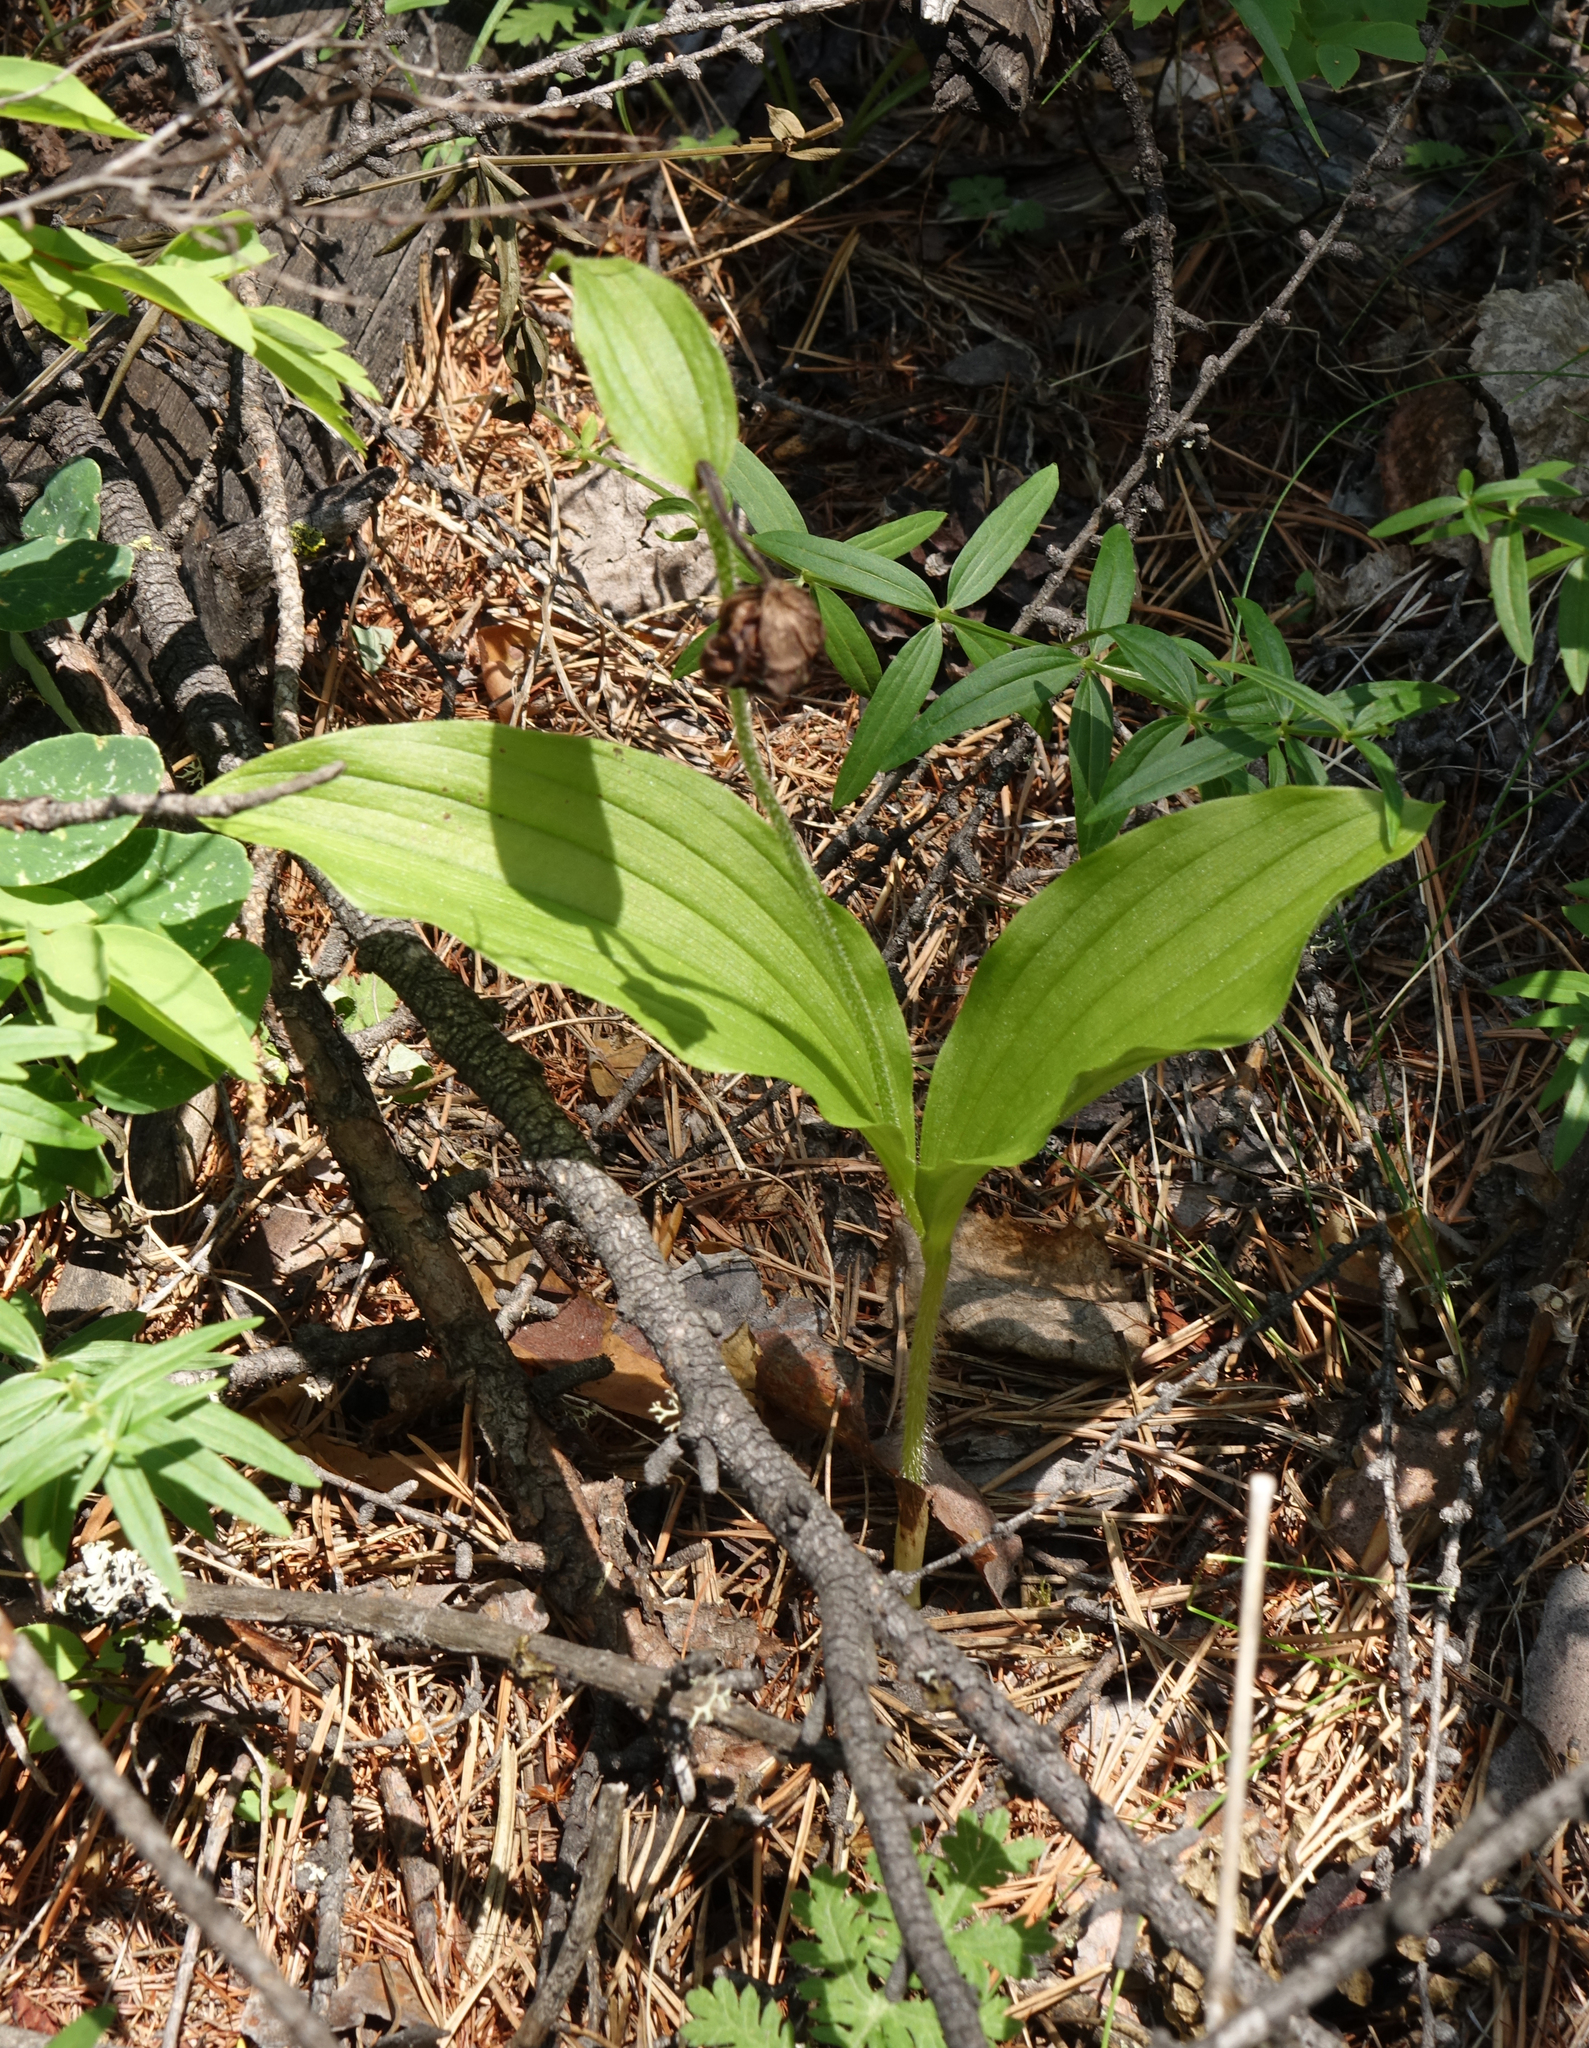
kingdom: Plantae
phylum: Tracheophyta
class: Liliopsida
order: Asparagales
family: Orchidaceae
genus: Cypripedium
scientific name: Cypripedium guttatum
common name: Pink lady slipper
